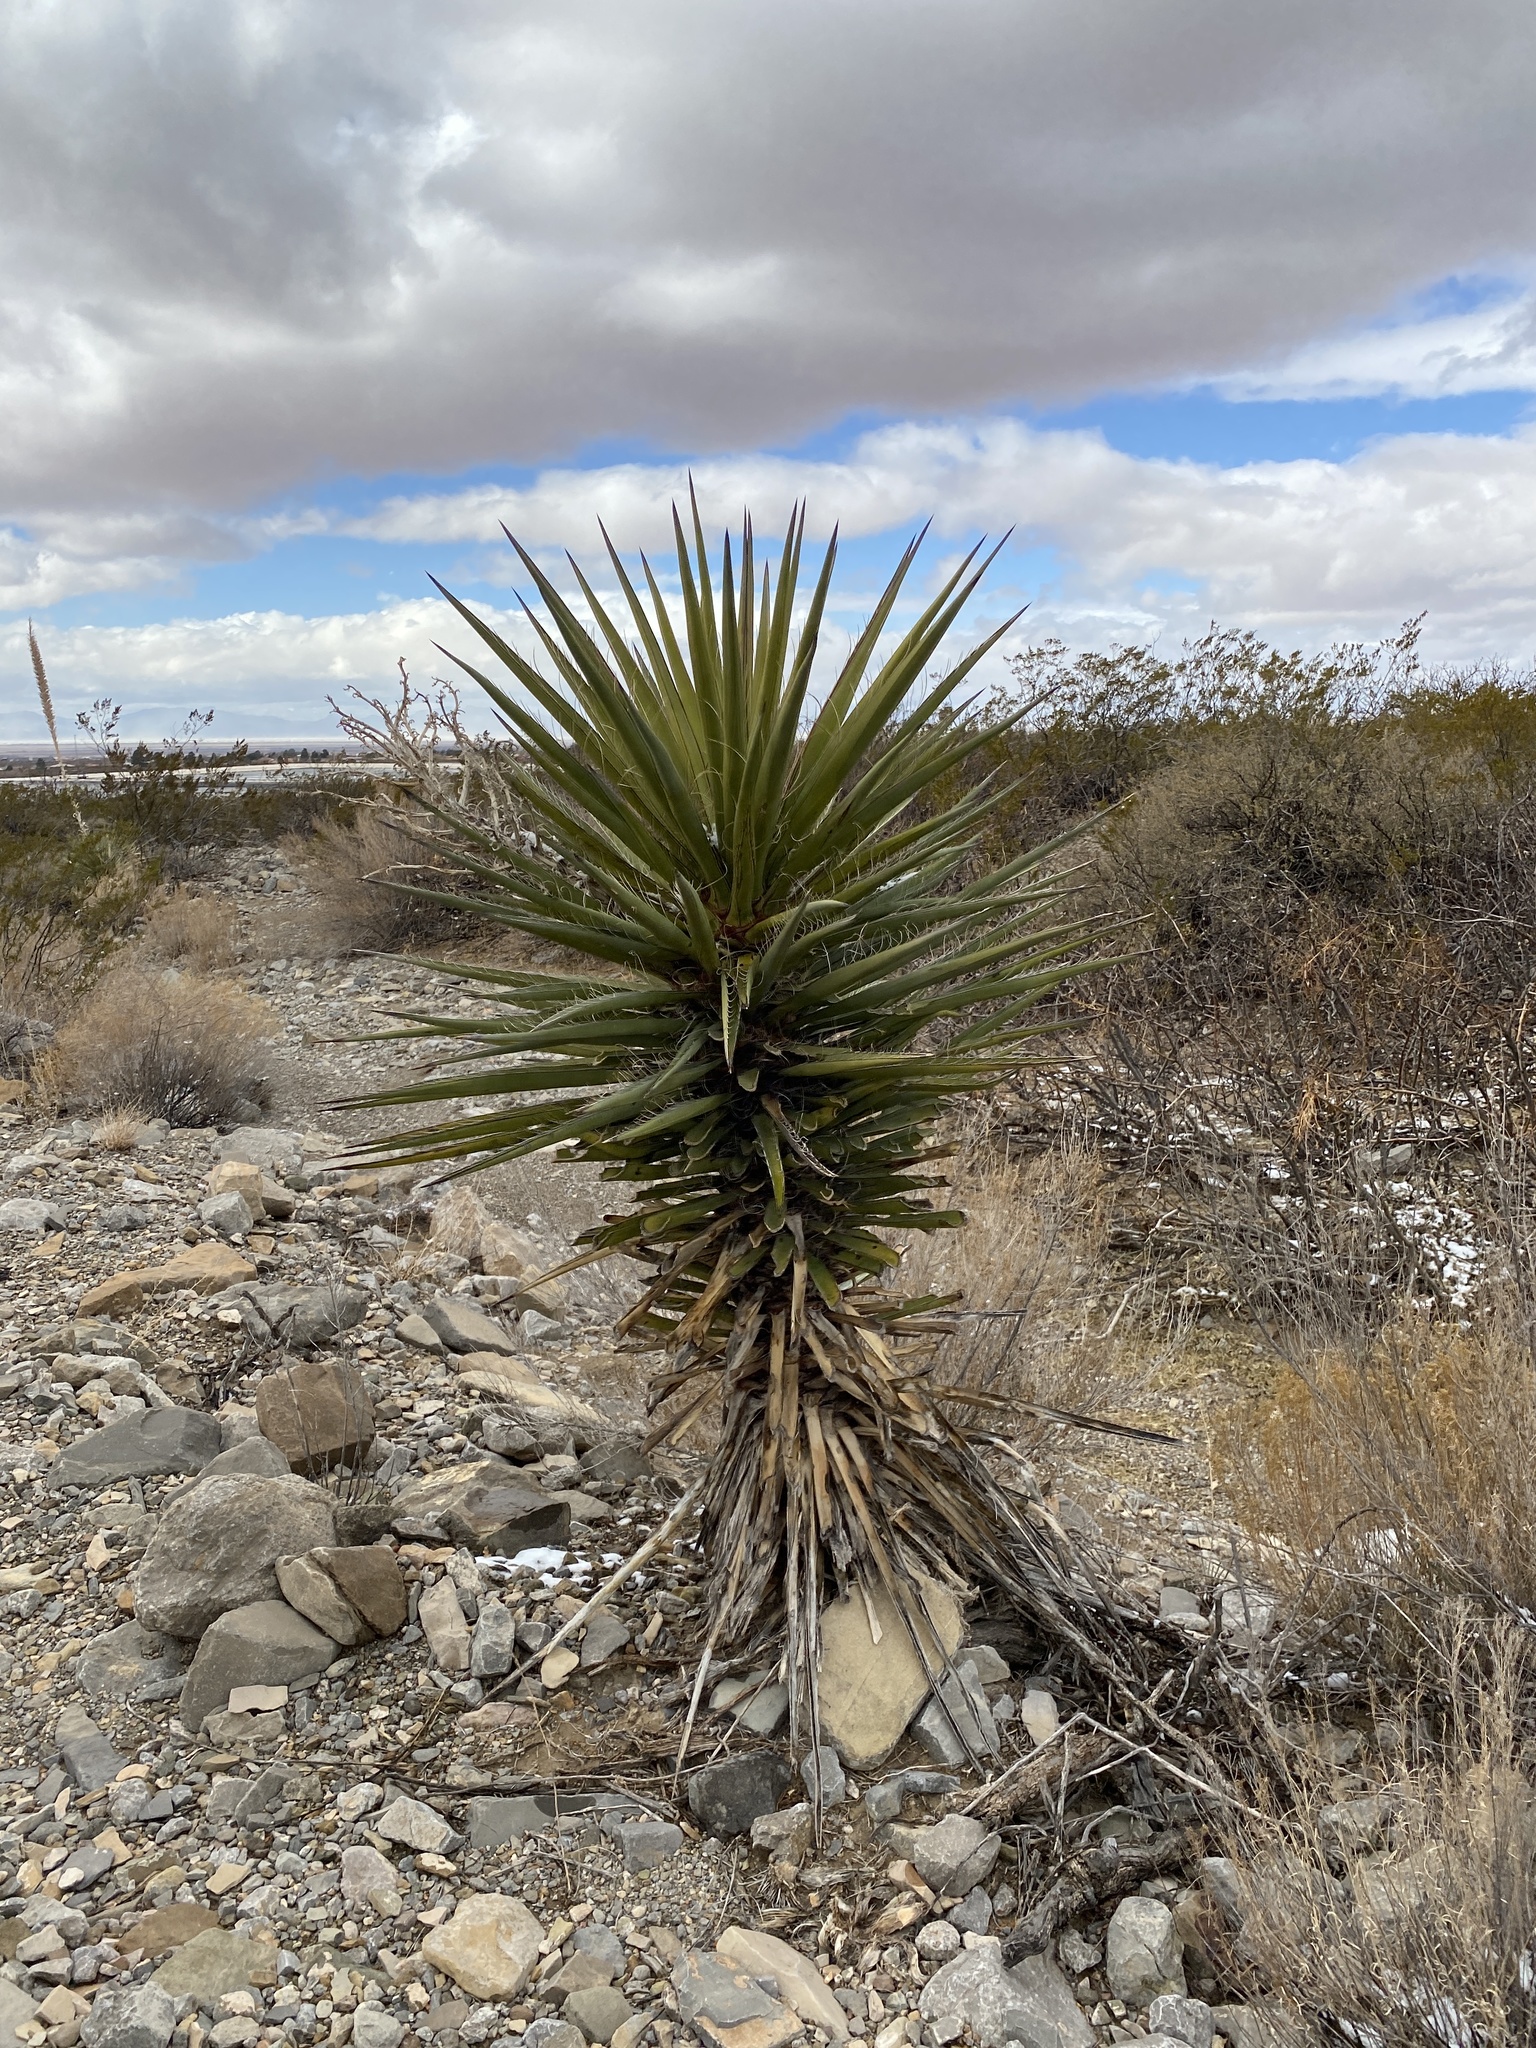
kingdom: Plantae
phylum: Tracheophyta
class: Liliopsida
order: Asparagales
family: Asparagaceae
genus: Yucca
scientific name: Yucca treculiana
